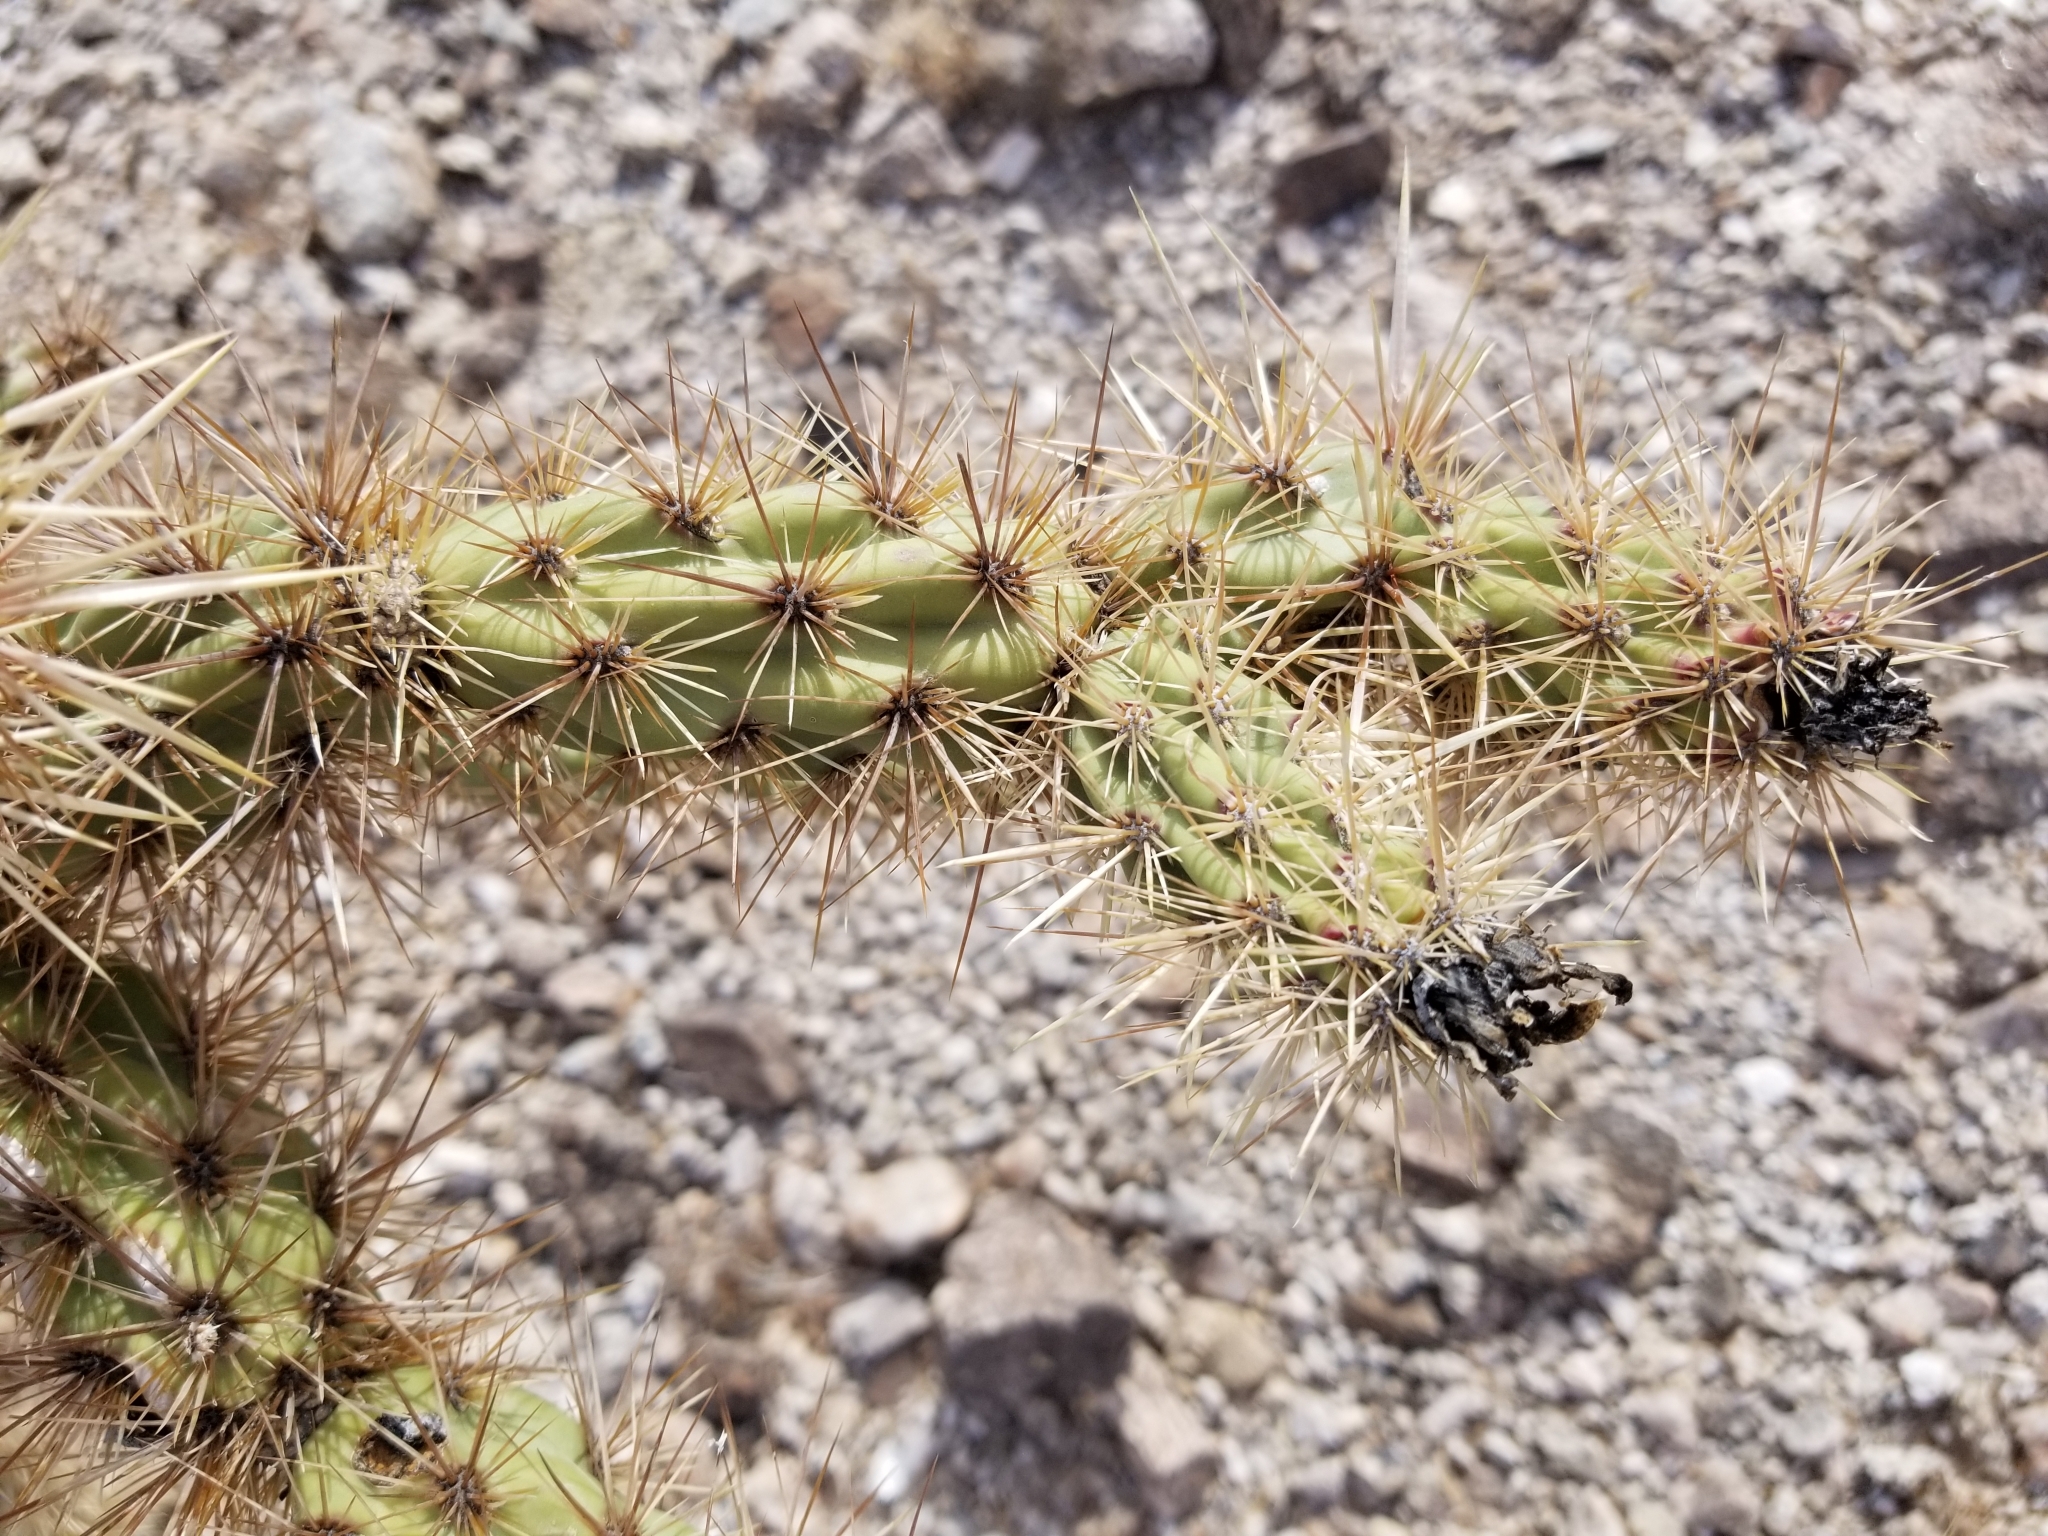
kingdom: Plantae
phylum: Tracheophyta
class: Magnoliopsida
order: Caryophyllales
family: Cactaceae
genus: Cylindropuntia
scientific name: Cylindropuntia acanthocarpa
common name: Buckhorn cholla
